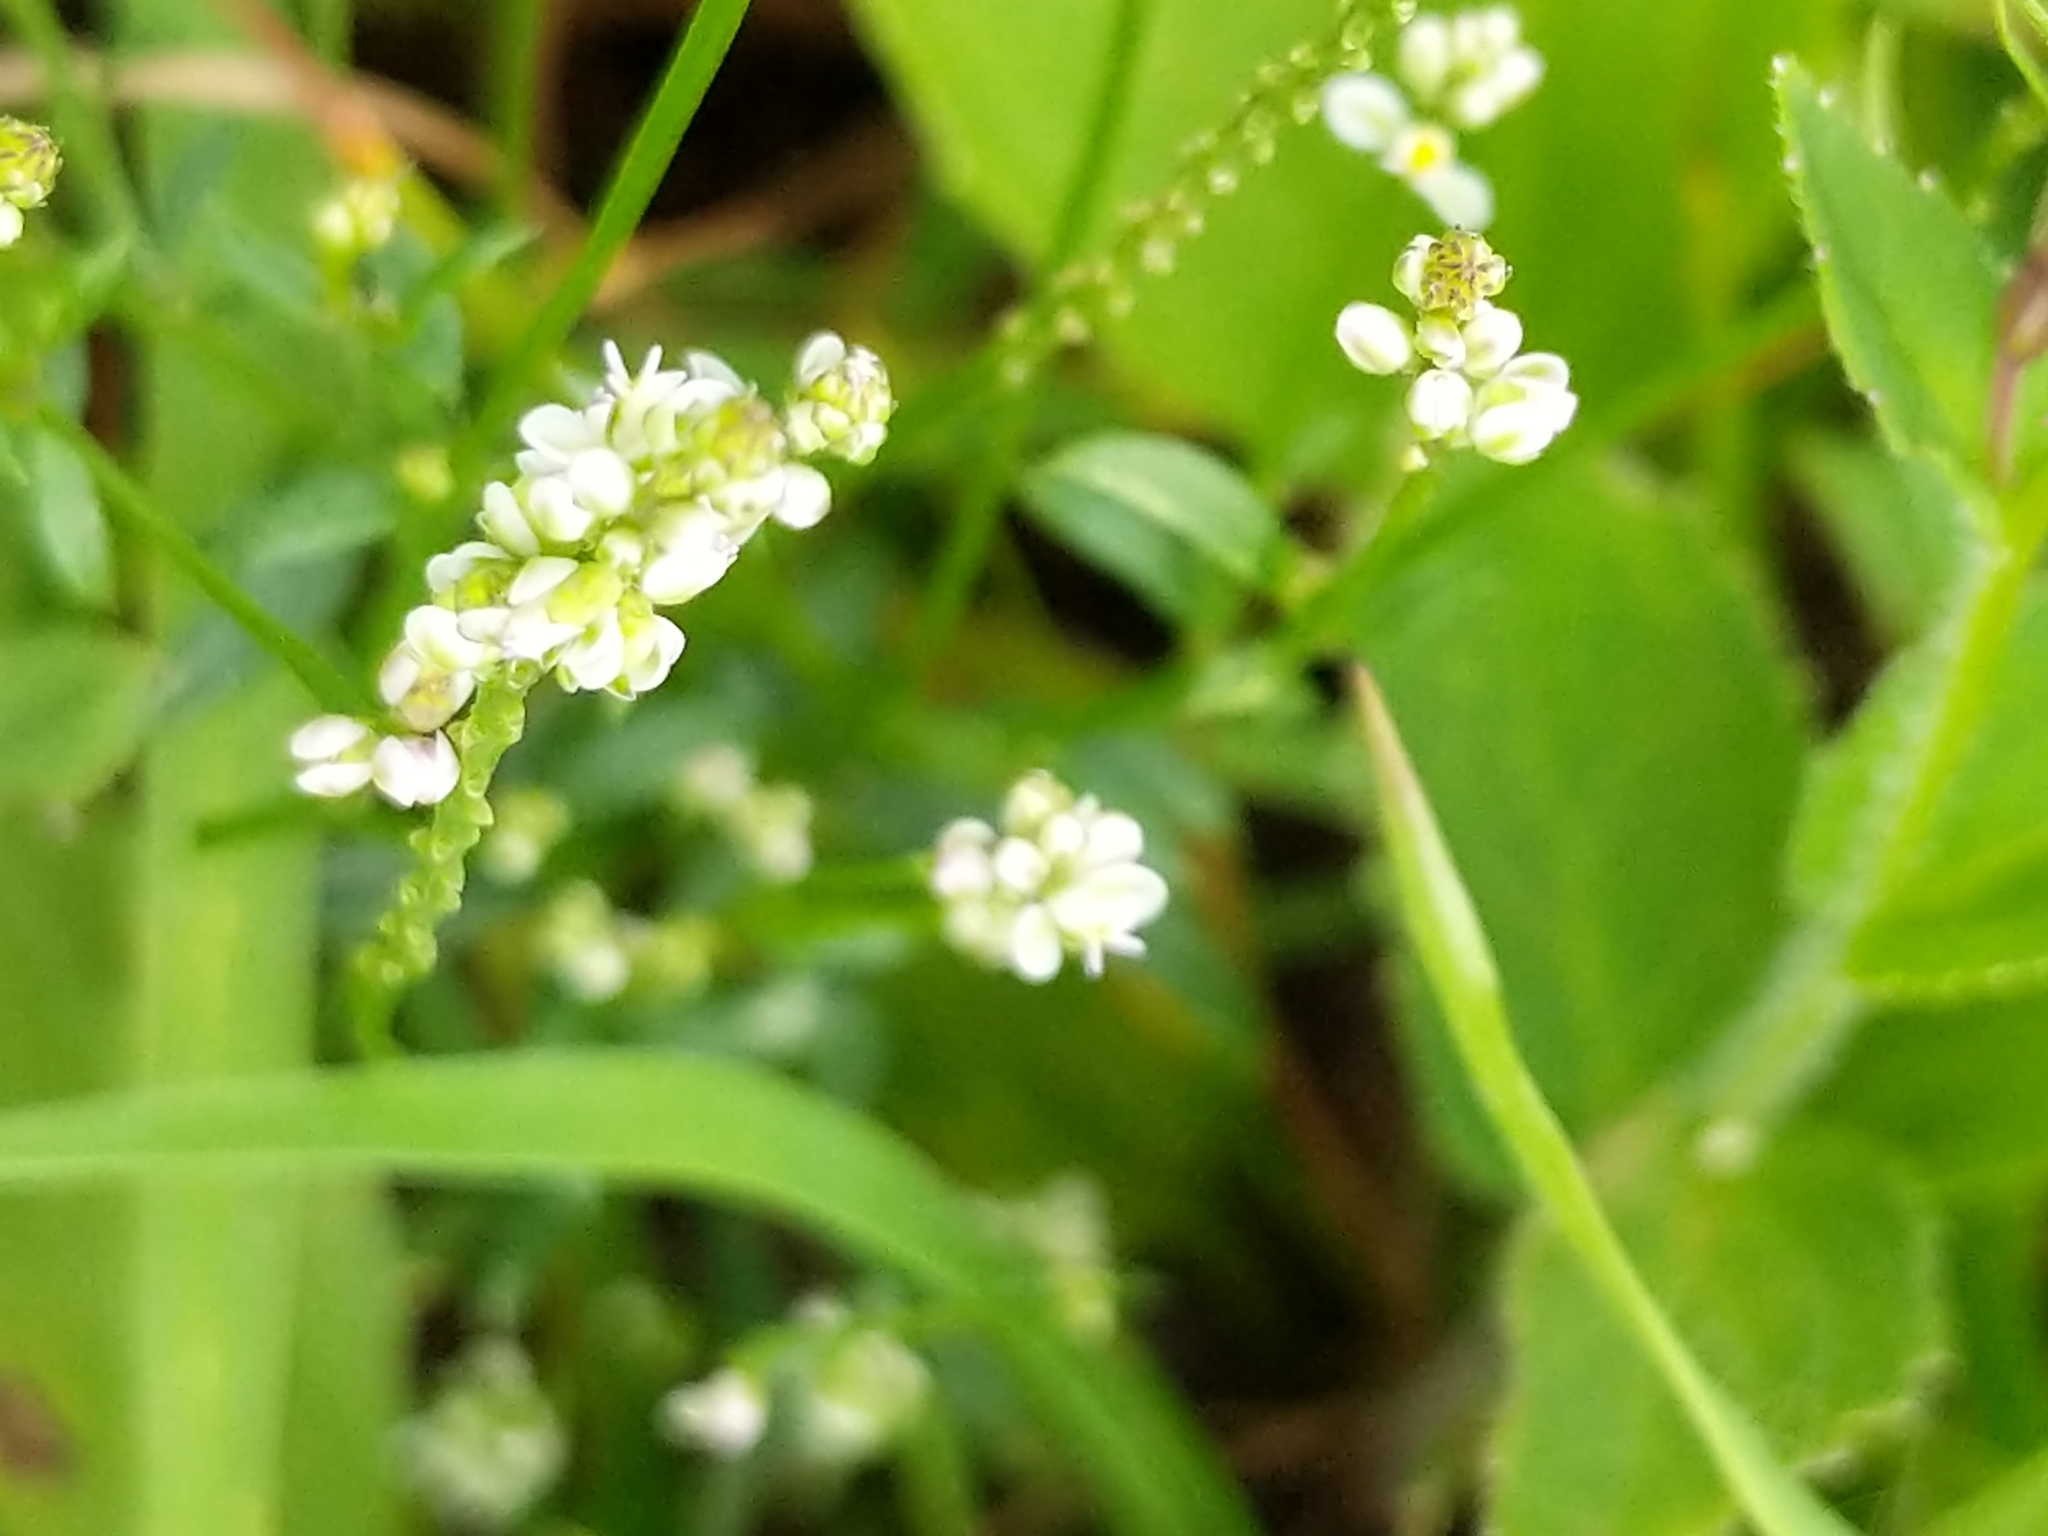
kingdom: Plantae
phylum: Tracheophyta
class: Magnoliopsida
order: Fabales
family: Polygalaceae
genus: Polygala
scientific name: Polygala verticillata
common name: Whorl milkwort
